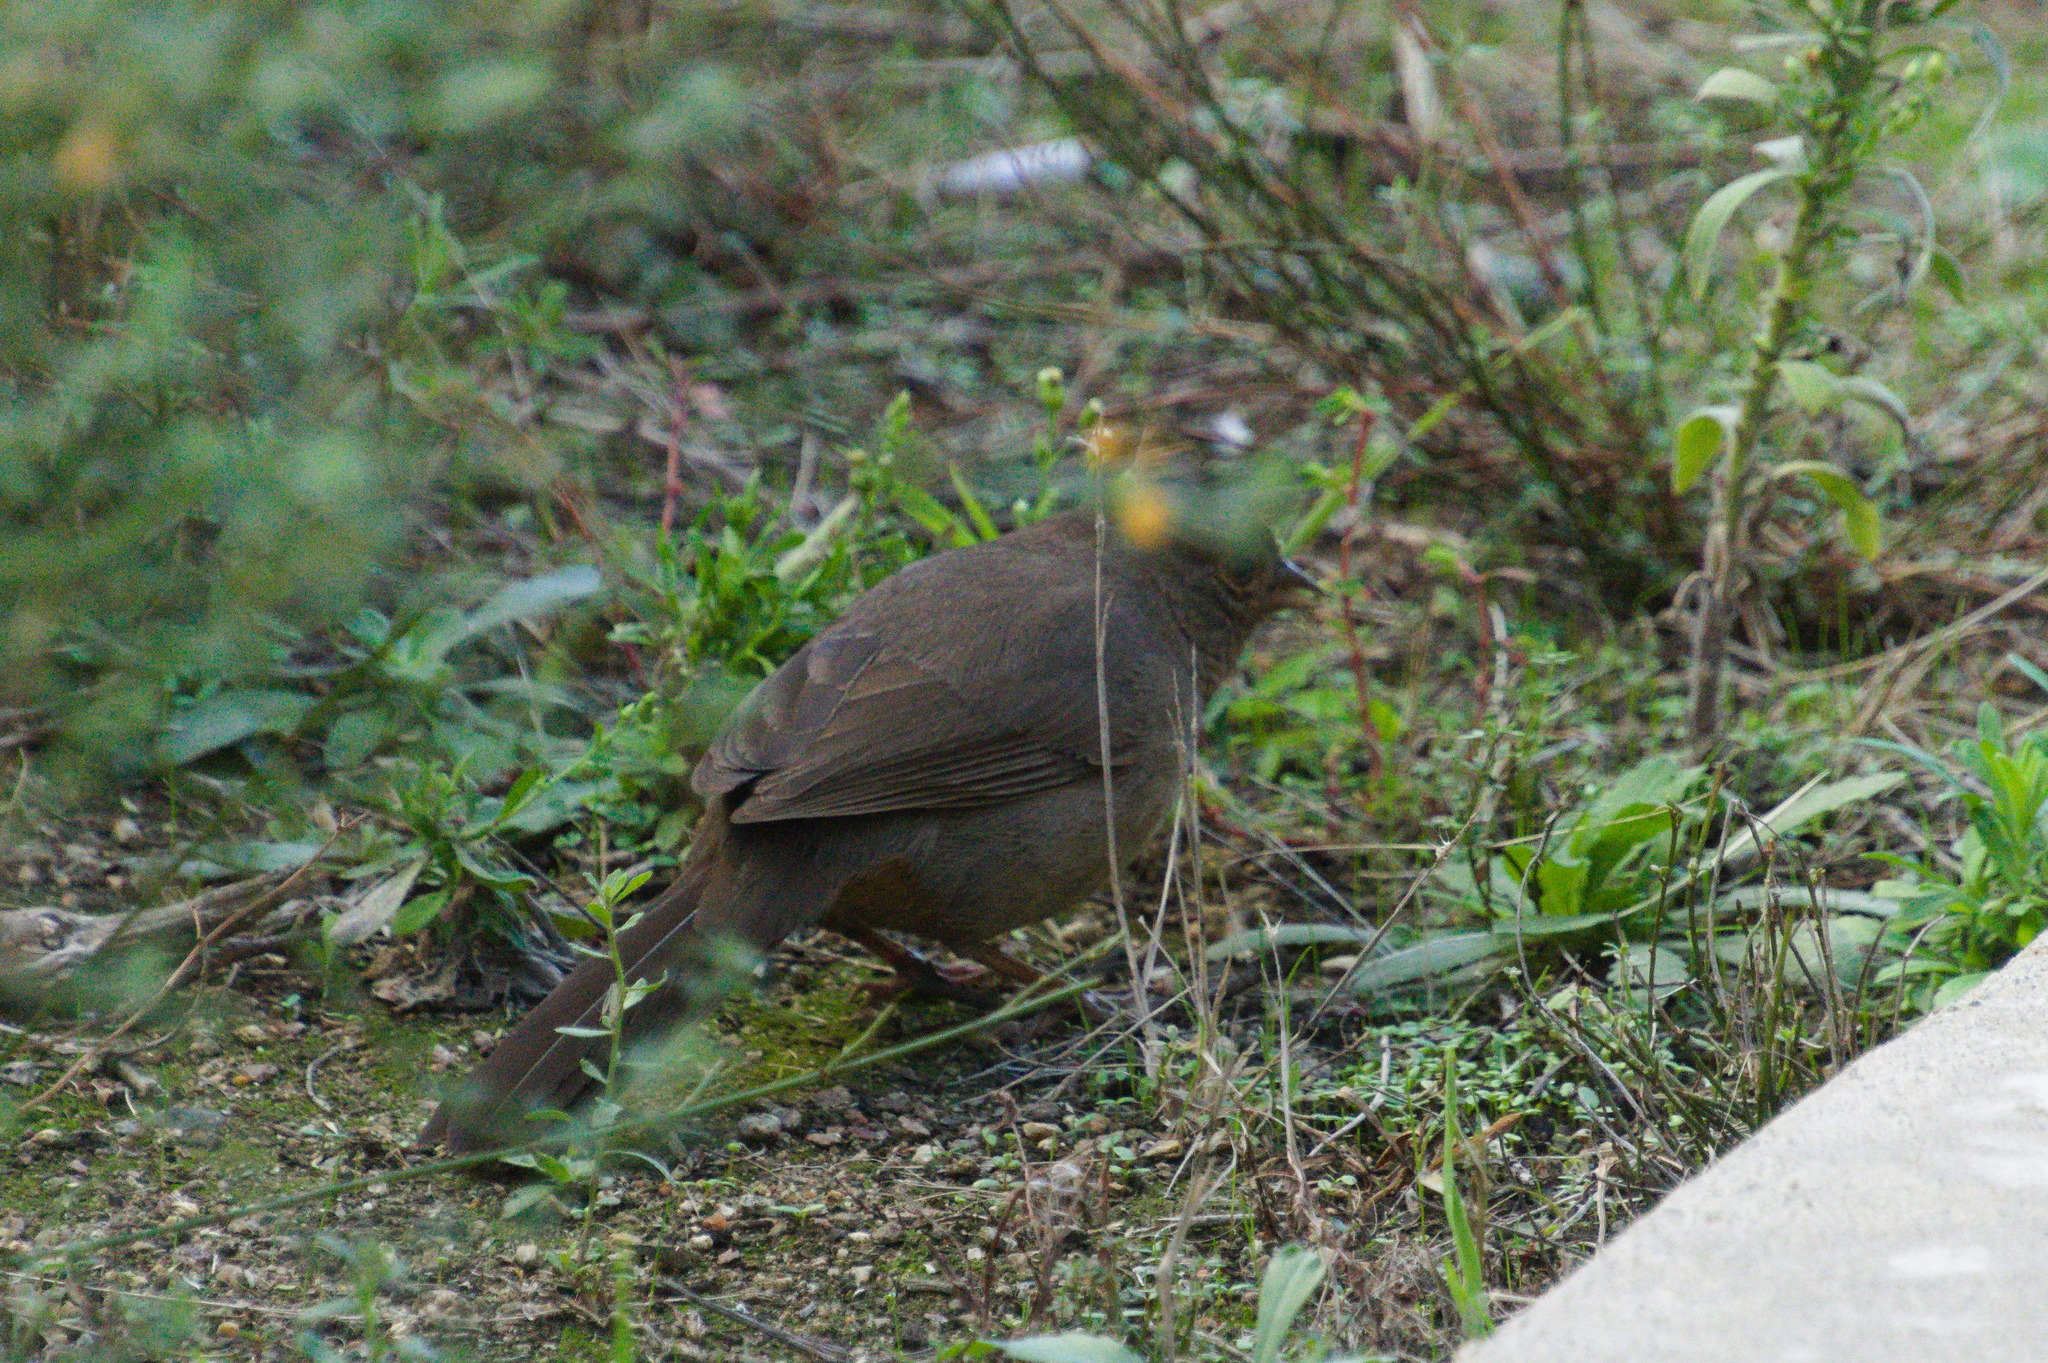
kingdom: Animalia
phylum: Chordata
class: Aves
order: Passeriformes
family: Passerellidae
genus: Melozone
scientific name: Melozone crissalis
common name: California towhee
